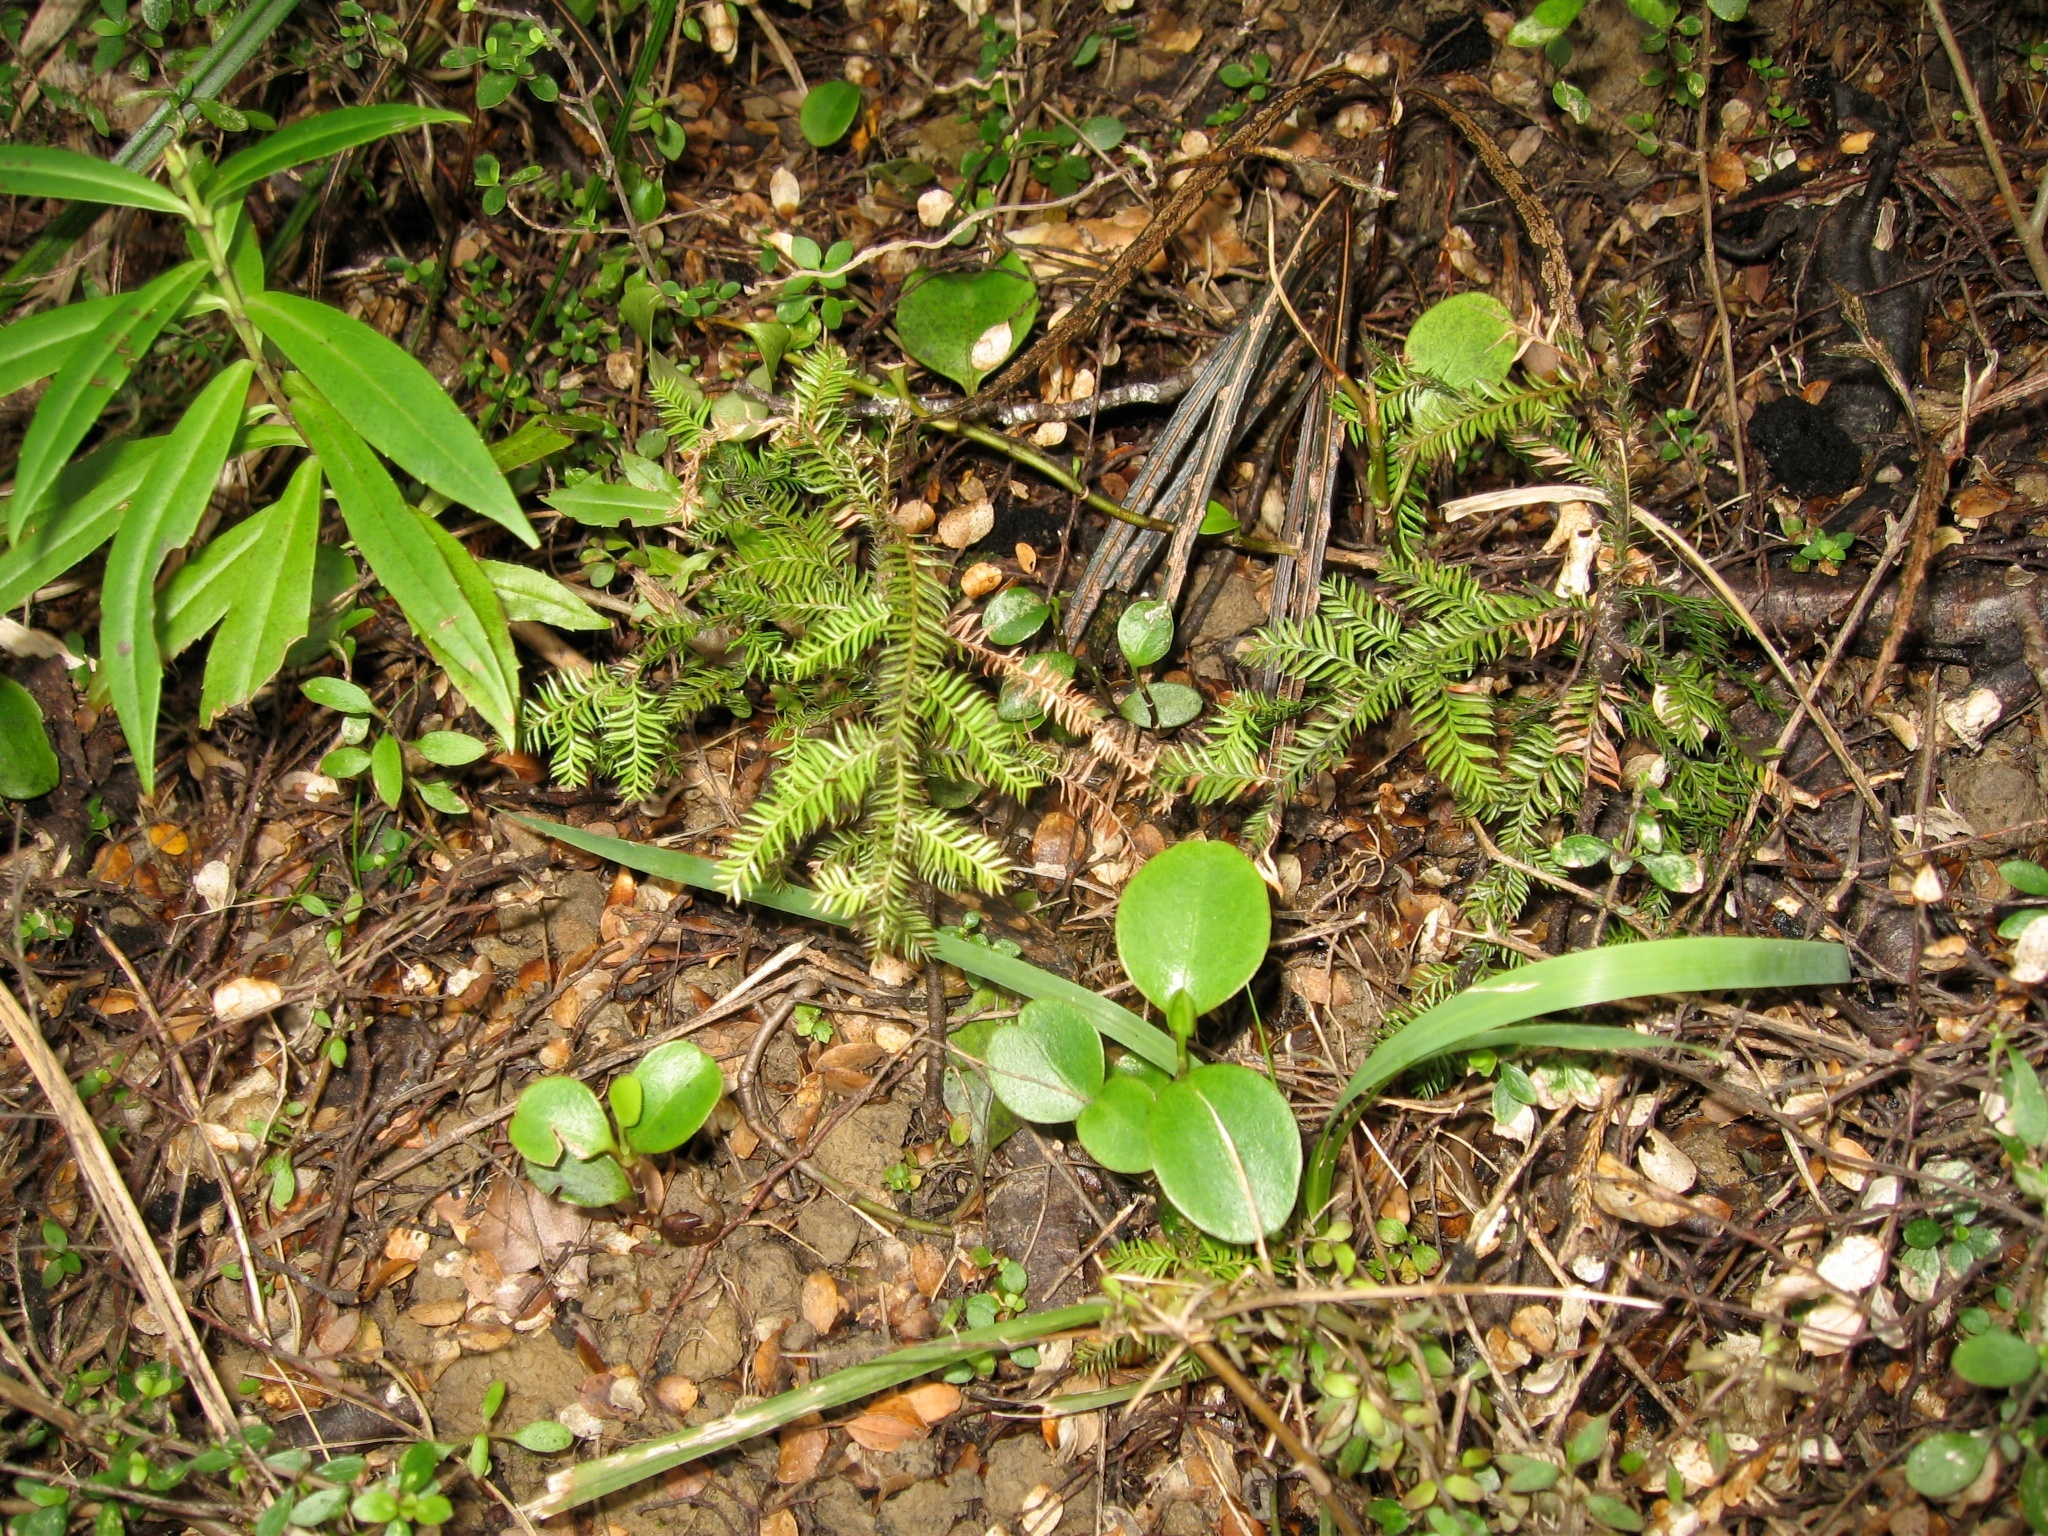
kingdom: Plantae
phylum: Tracheophyta
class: Pinopsida
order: Pinales
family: Podocarpaceae
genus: Dacrycarpus
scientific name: Dacrycarpus dacrydioides
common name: White pine
